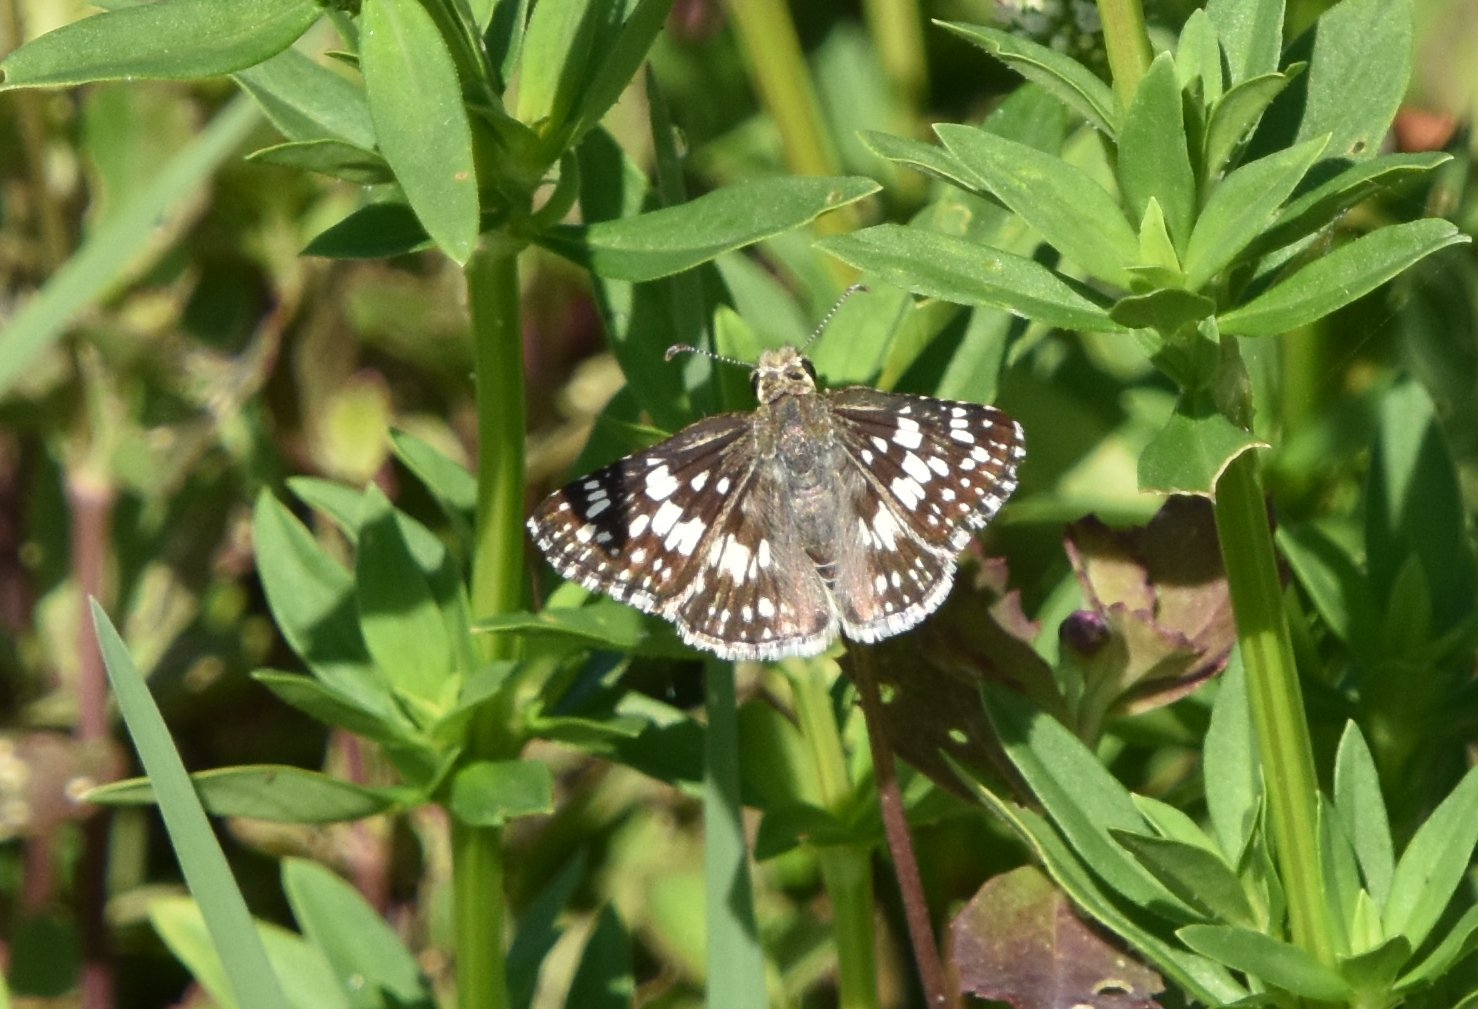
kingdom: Animalia
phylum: Arthropoda
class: Insecta
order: Lepidoptera
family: Hesperiidae
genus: Burnsius
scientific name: Burnsius albezens
